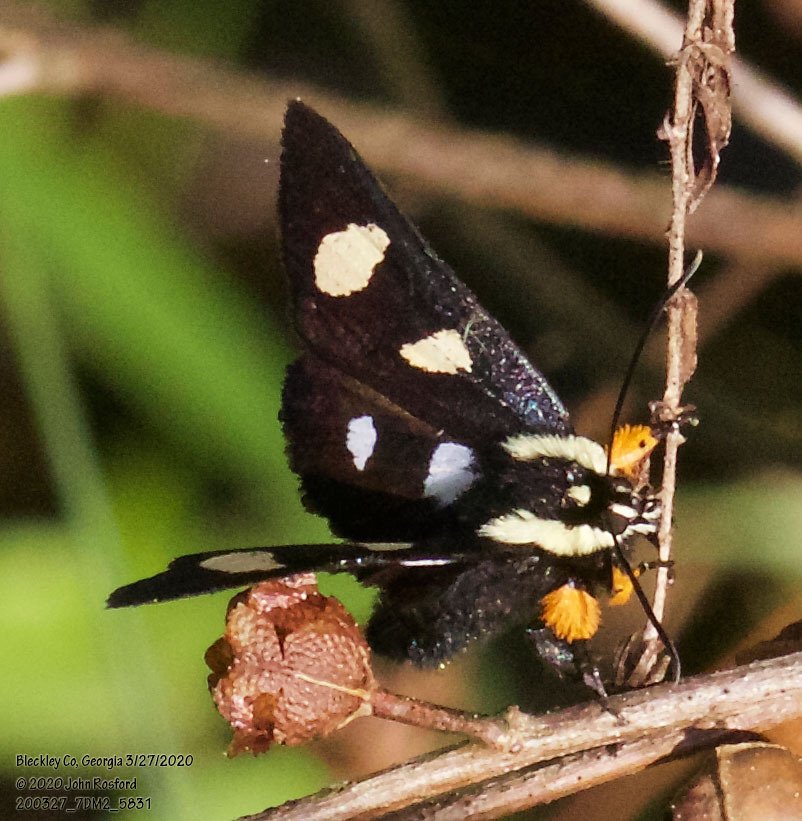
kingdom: Animalia
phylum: Arthropoda
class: Insecta
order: Lepidoptera
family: Noctuidae
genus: Alypia
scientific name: Alypia octomaculata
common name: Eight-spotted forester
